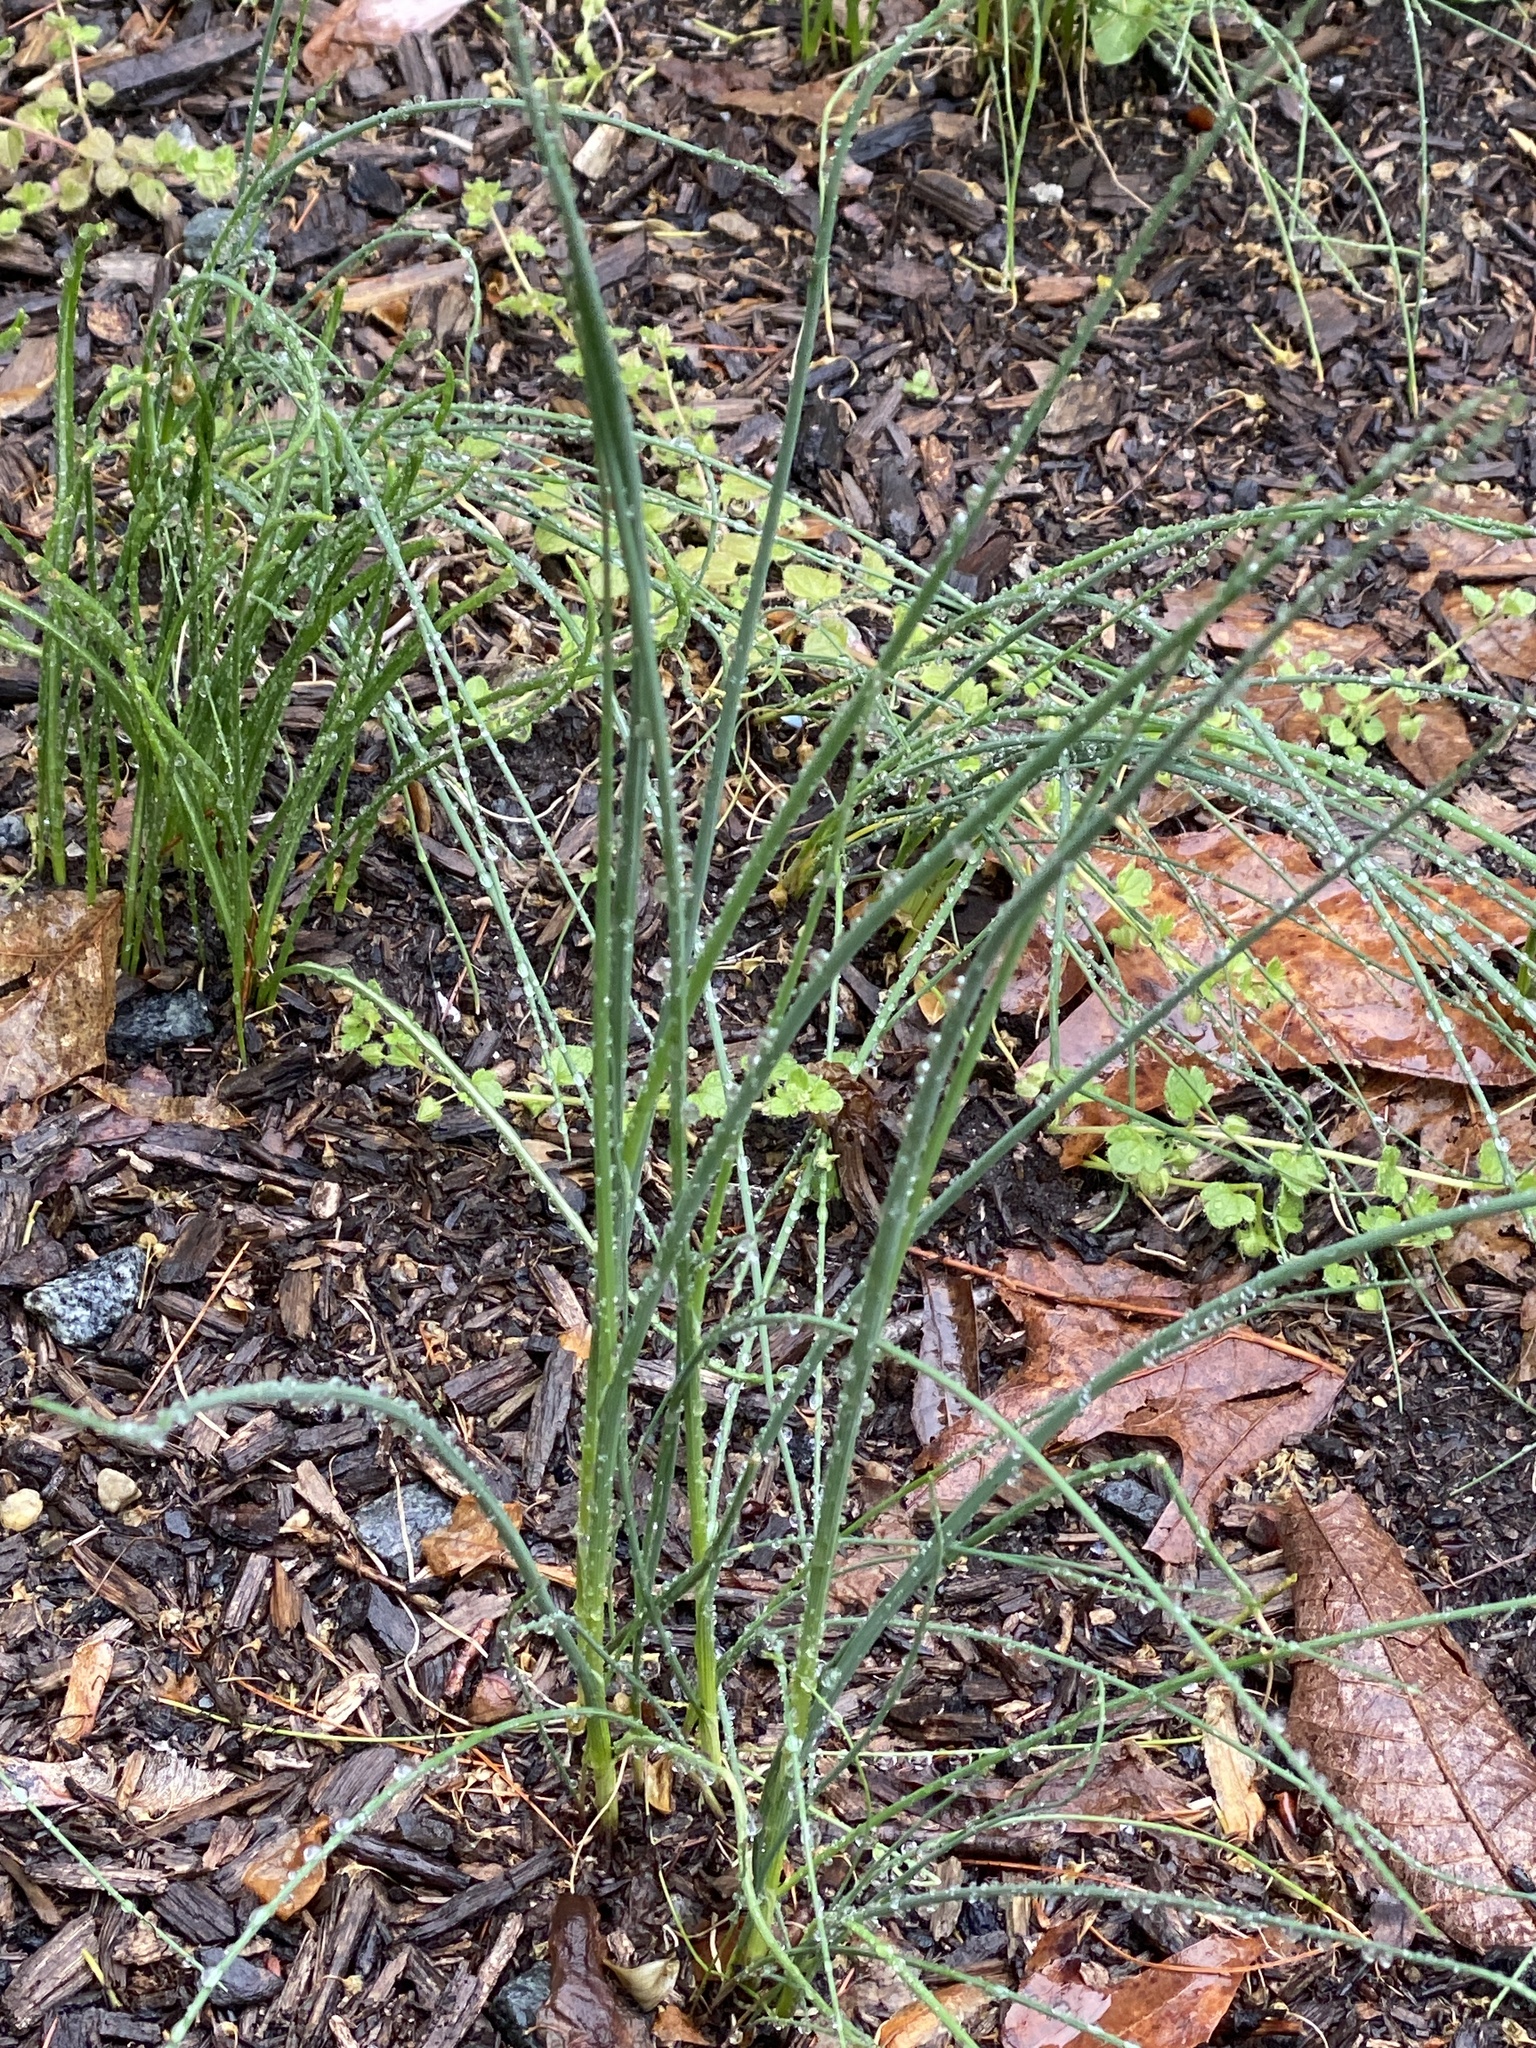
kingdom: Plantae
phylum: Tracheophyta
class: Liliopsida
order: Asparagales
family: Amaryllidaceae
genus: Allium
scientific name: Allium vineale
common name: Crow garlic
